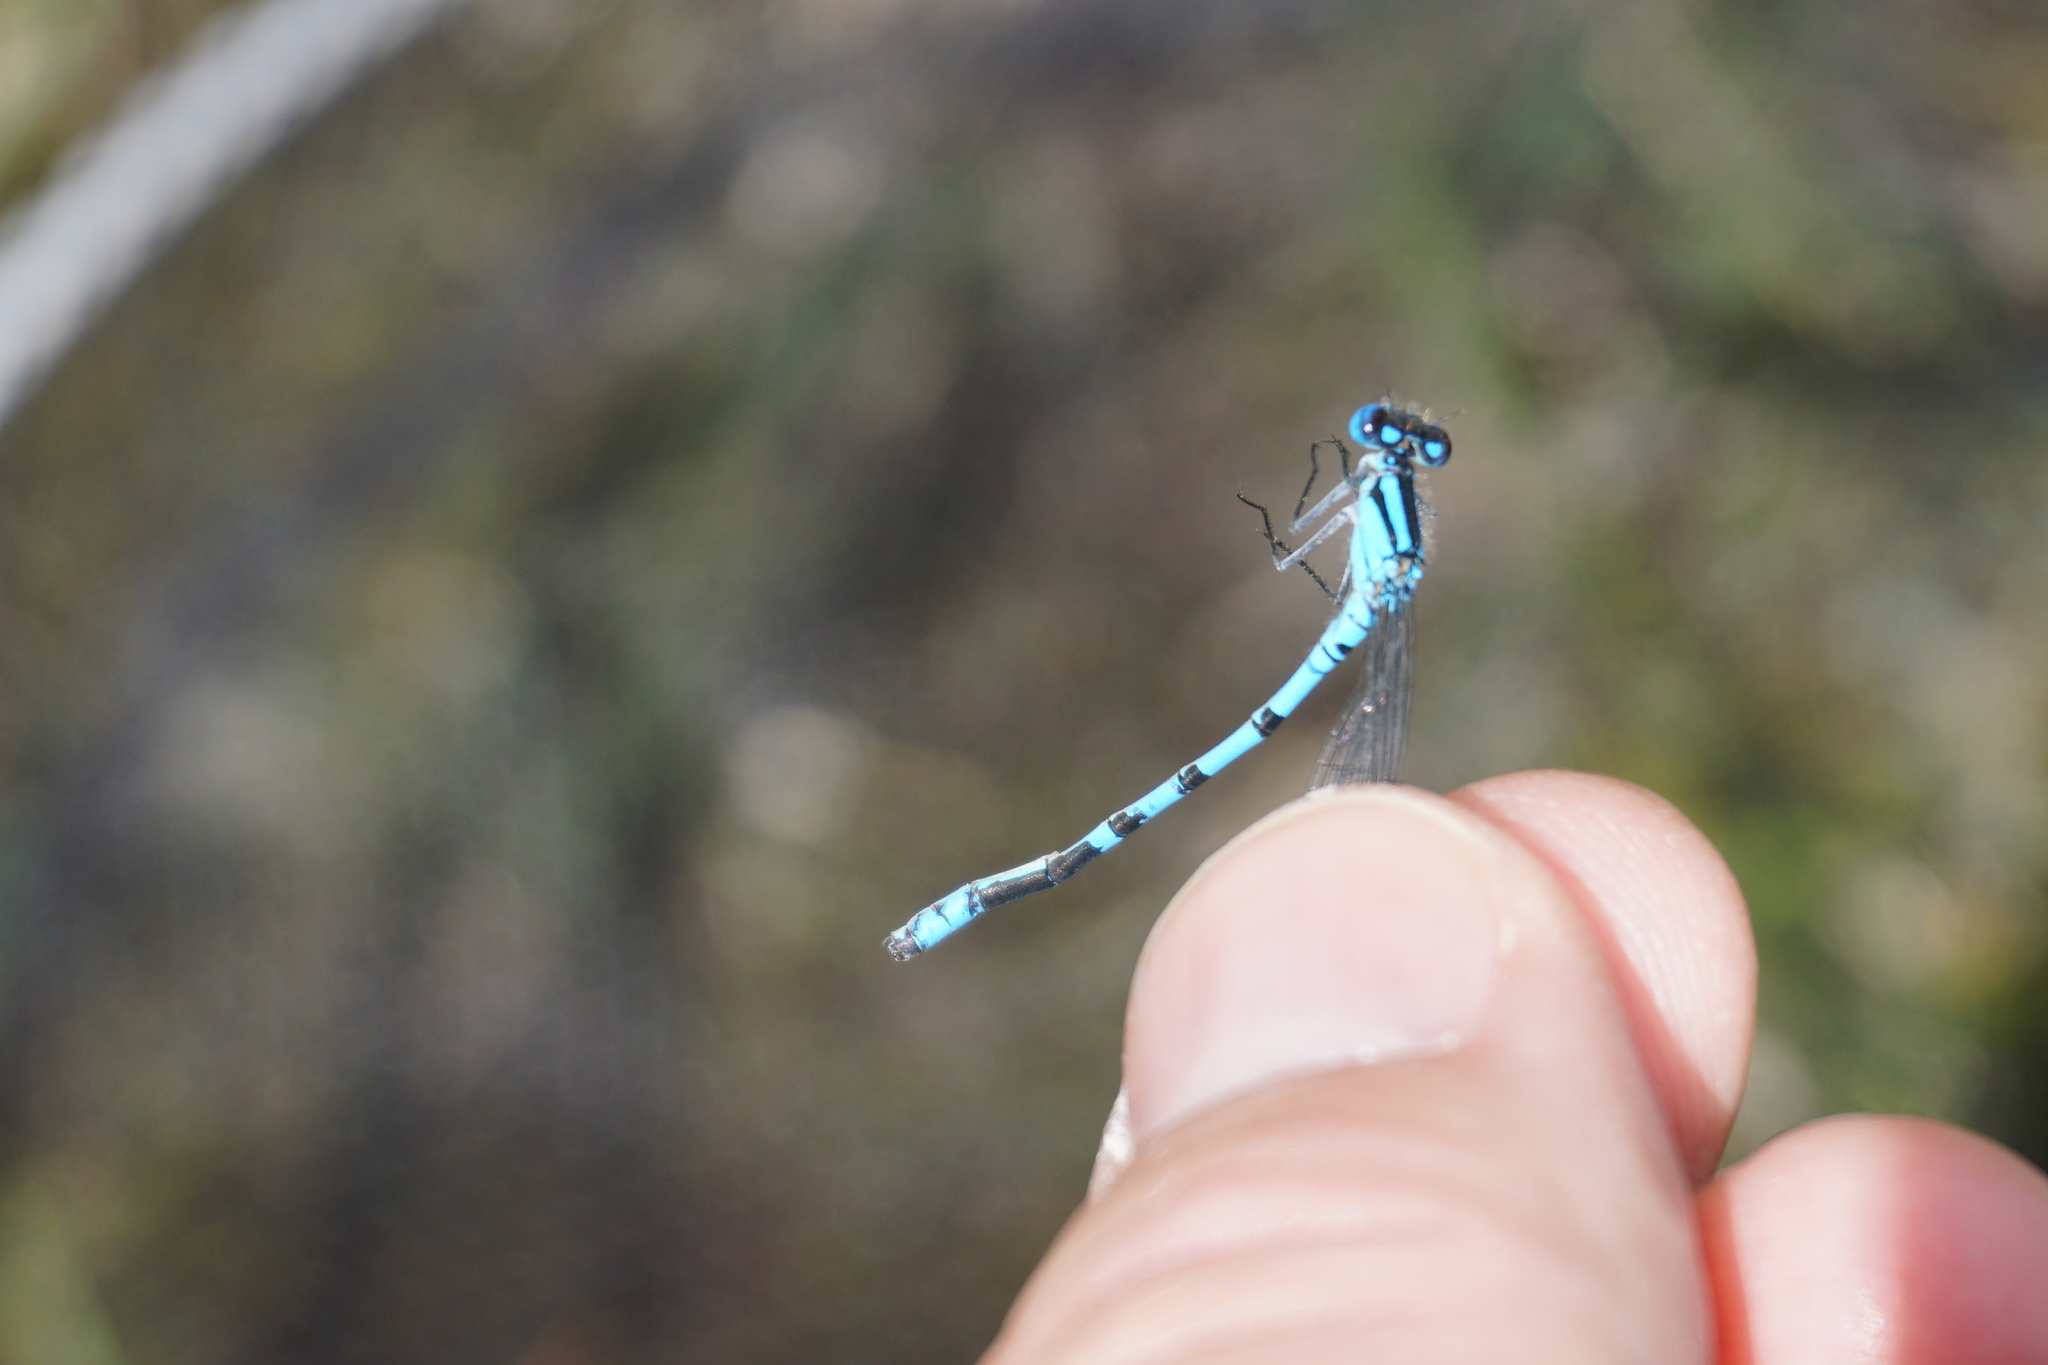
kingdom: Animalia
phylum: Arthropoda
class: Insecta
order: Odonata
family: Coenagrionidae
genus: Enallagma
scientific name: Enallagma cyathigerum
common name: Common blue damselfly
